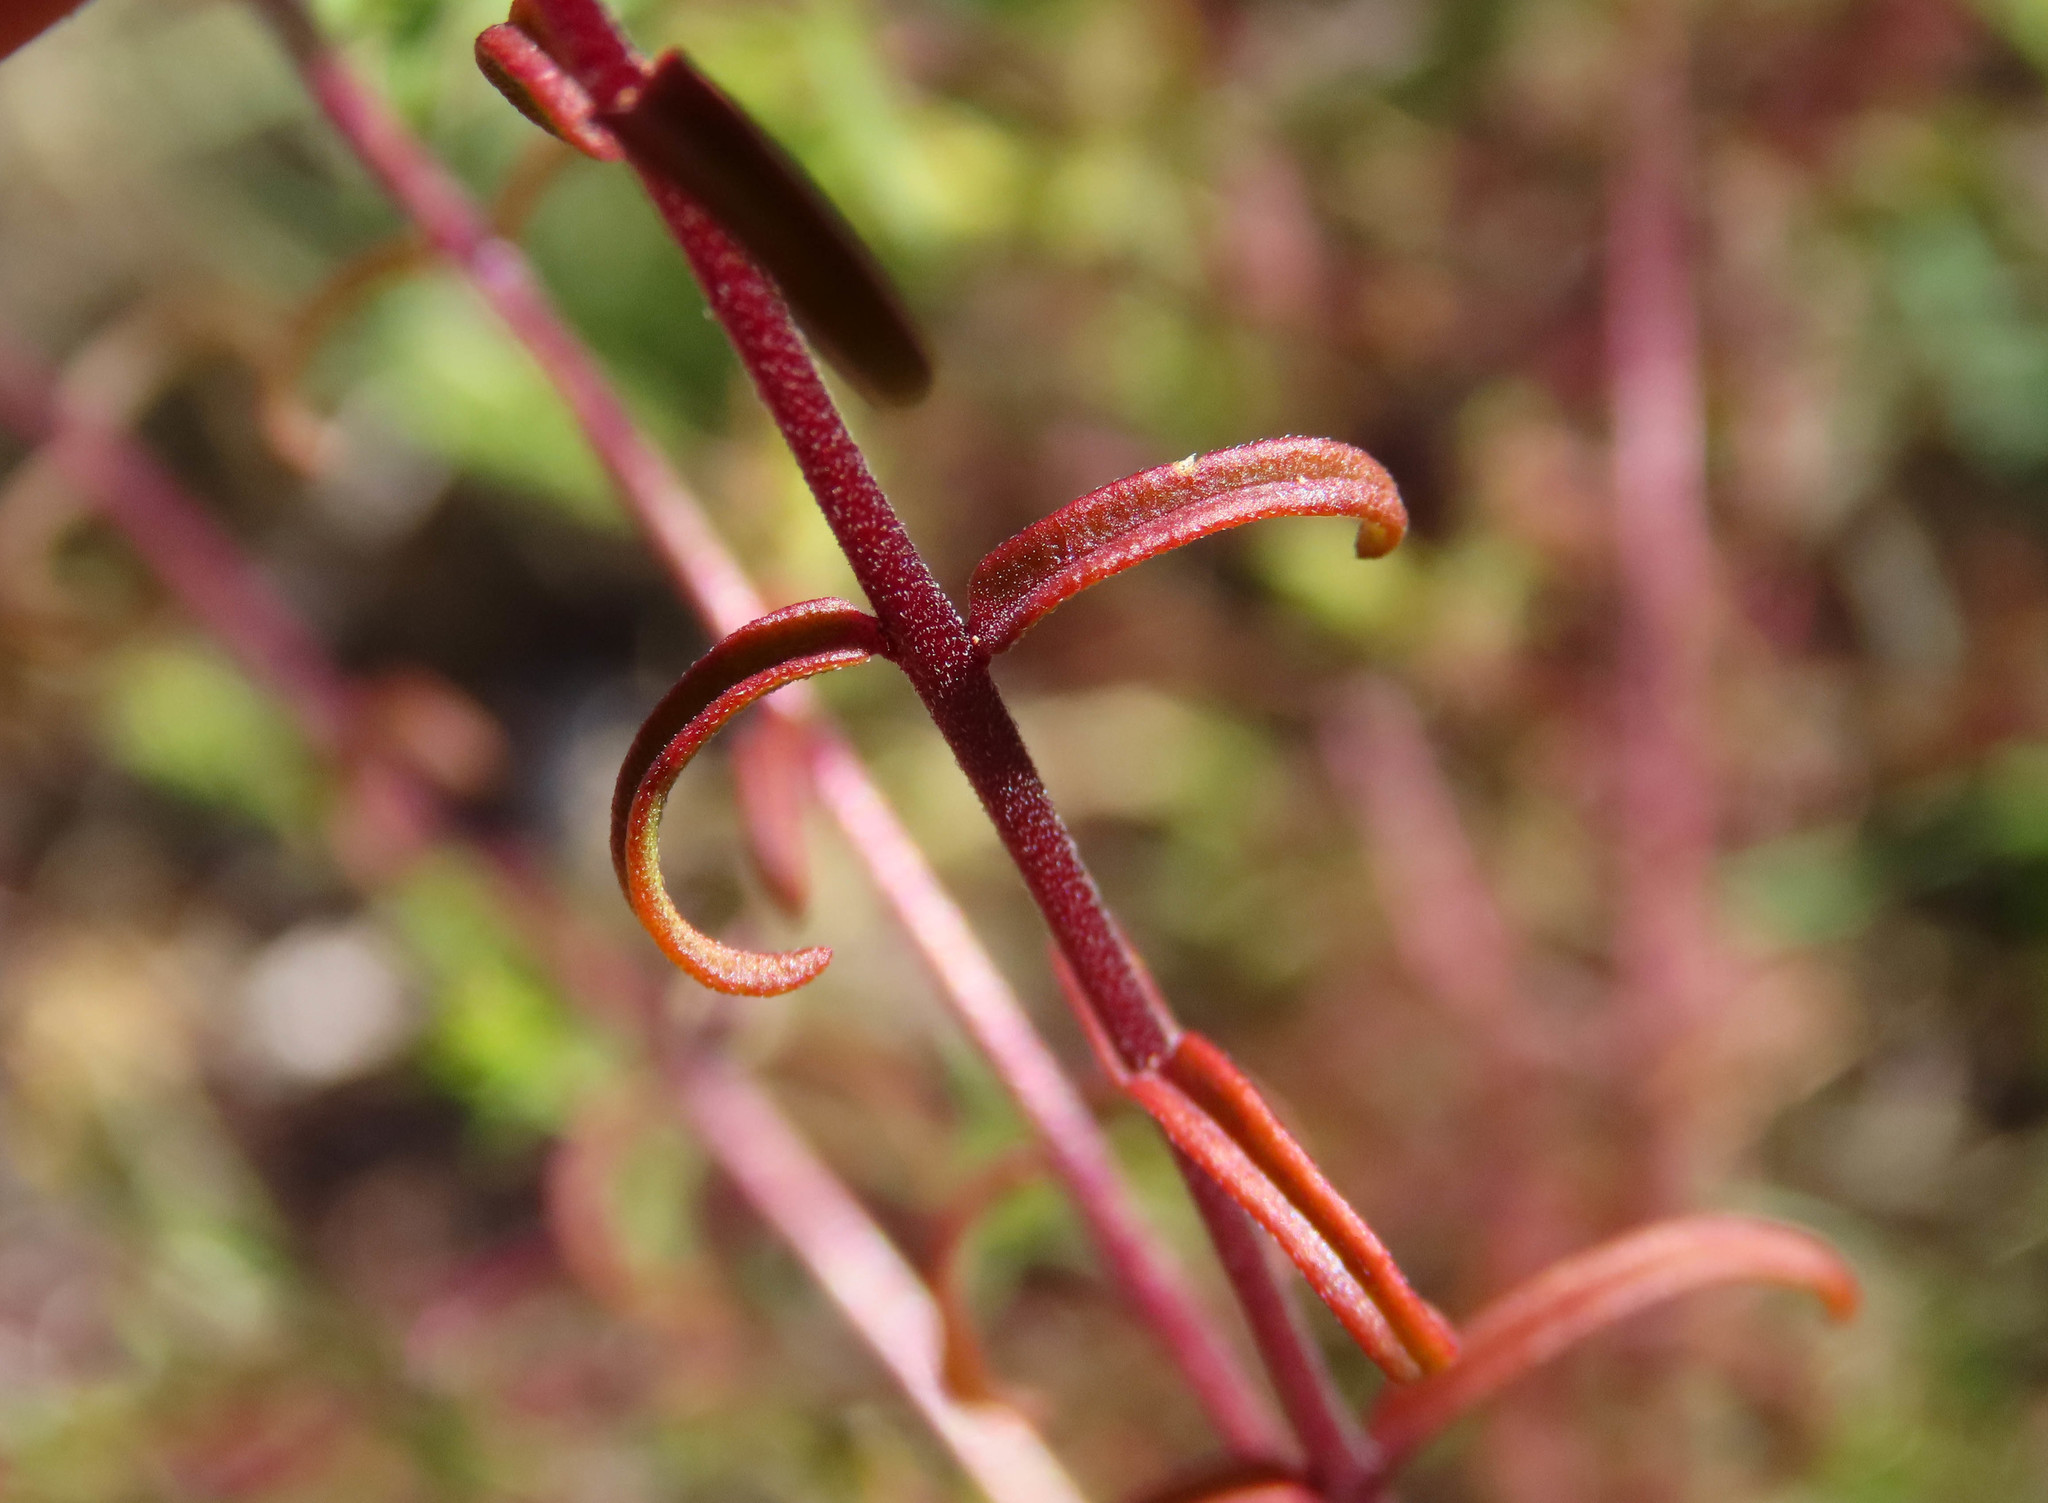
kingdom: Plantae
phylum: Tracheophyta
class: Magnoliopsida
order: Lamiales
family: Orobanchaceae
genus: Odontites
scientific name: Odontites luteus
